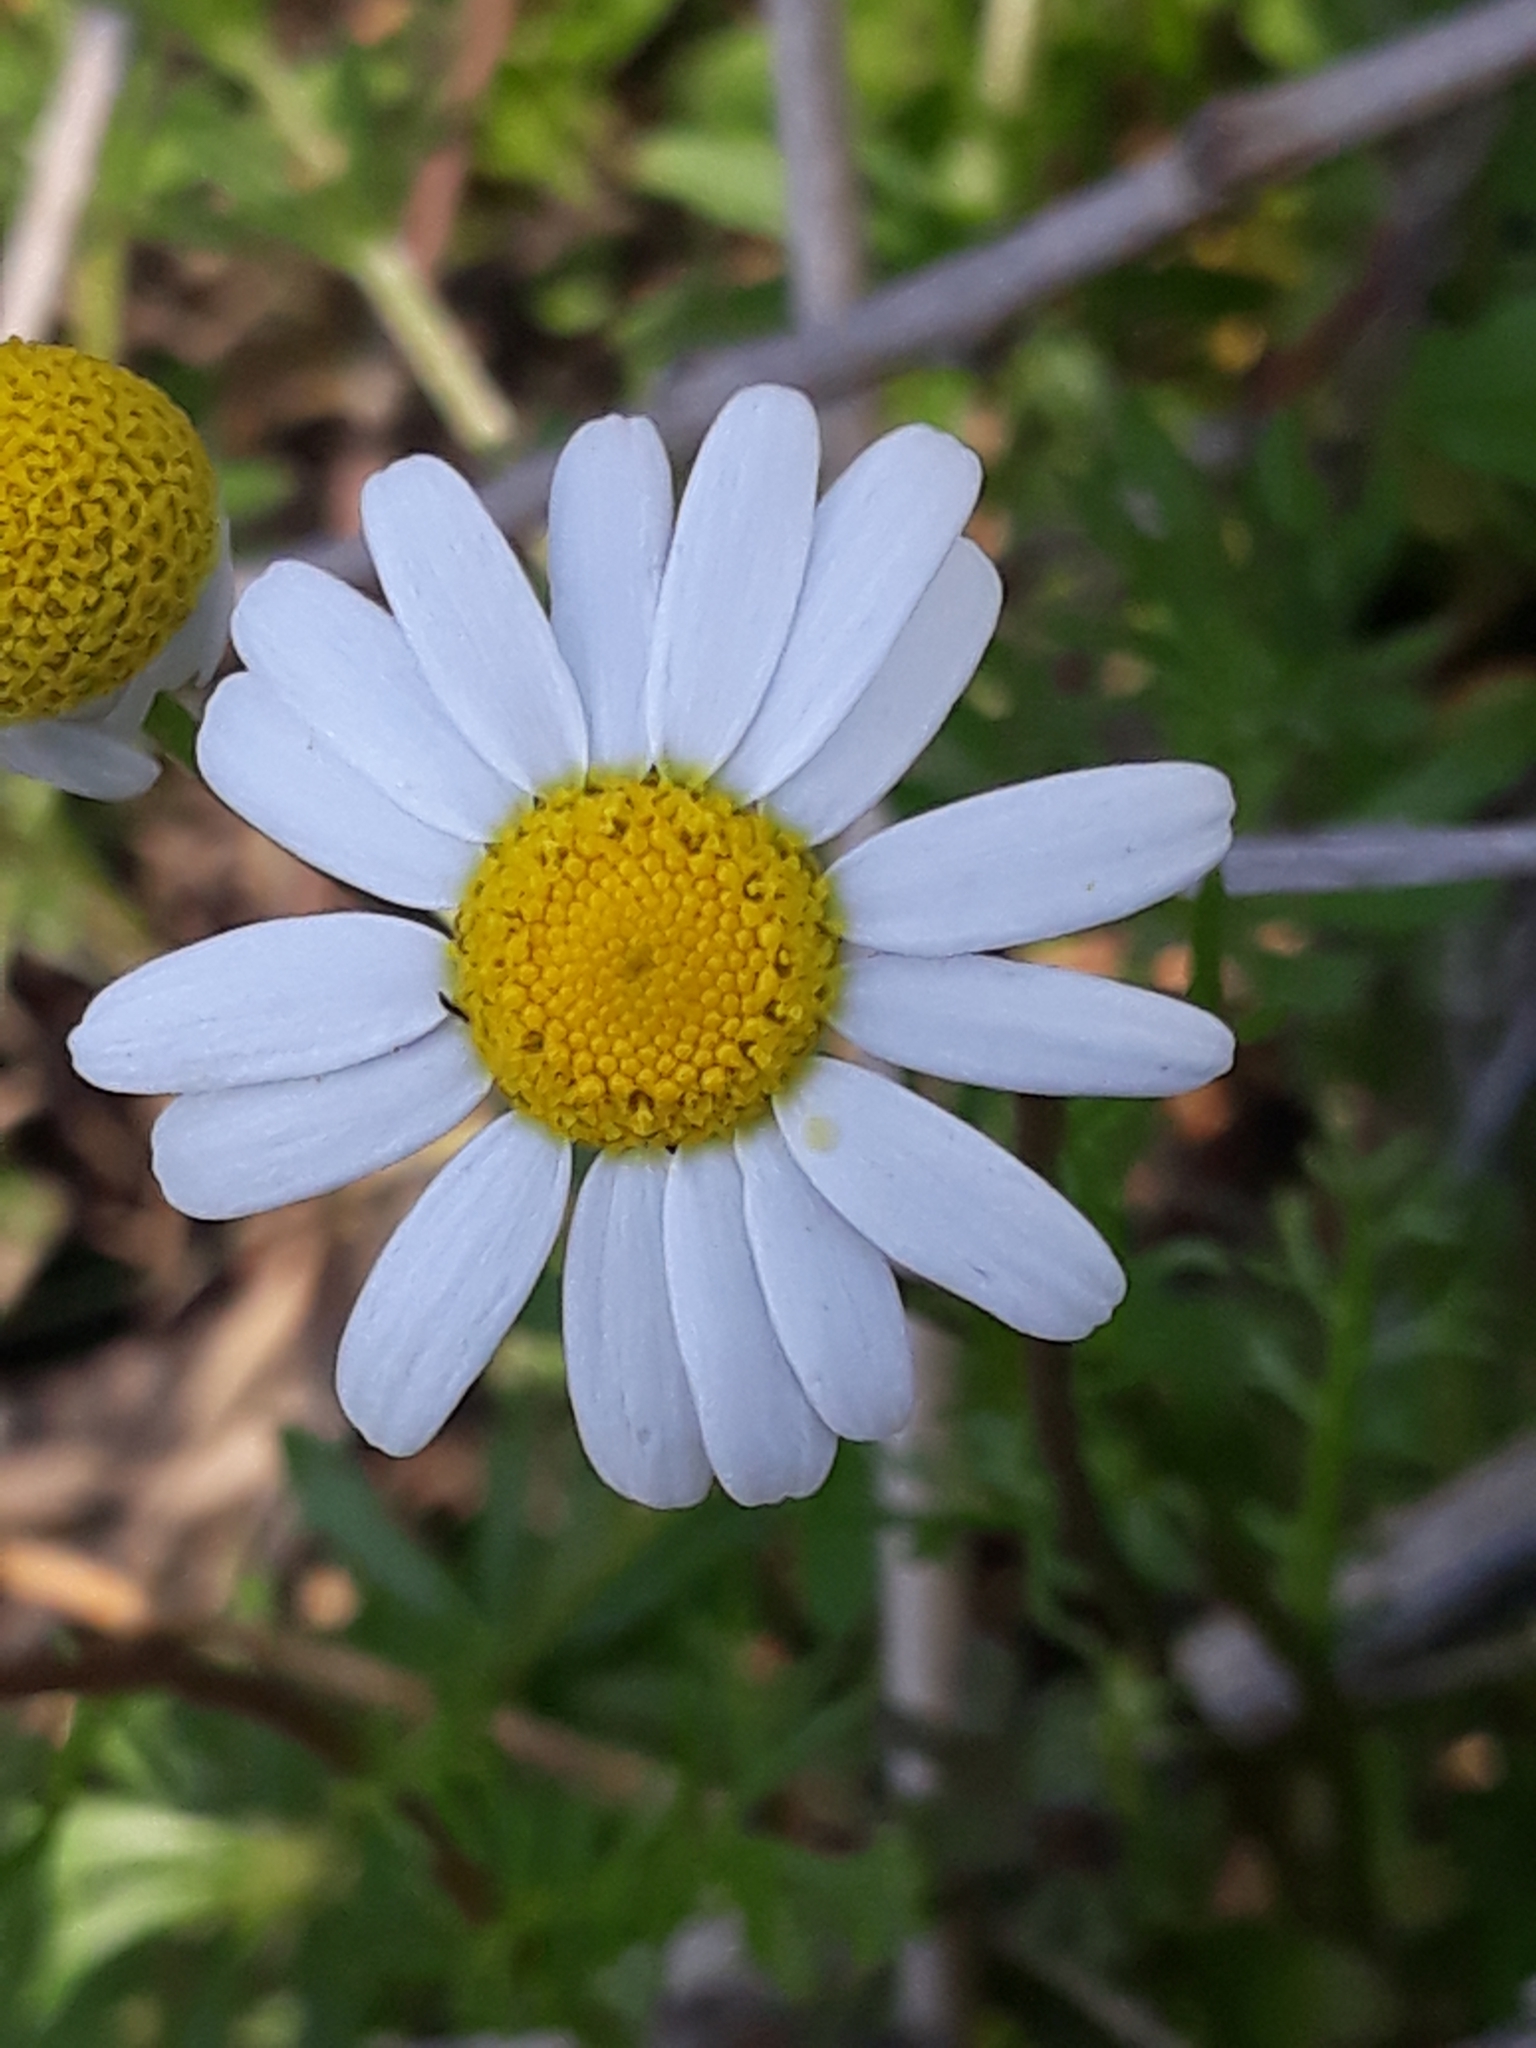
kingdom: Plantae
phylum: Tracheophyta
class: Magnoliopsida
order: Asterales
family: Asteraceae
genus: Chamaemelum
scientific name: Chamaemelum fuscatum
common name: Chamomile
